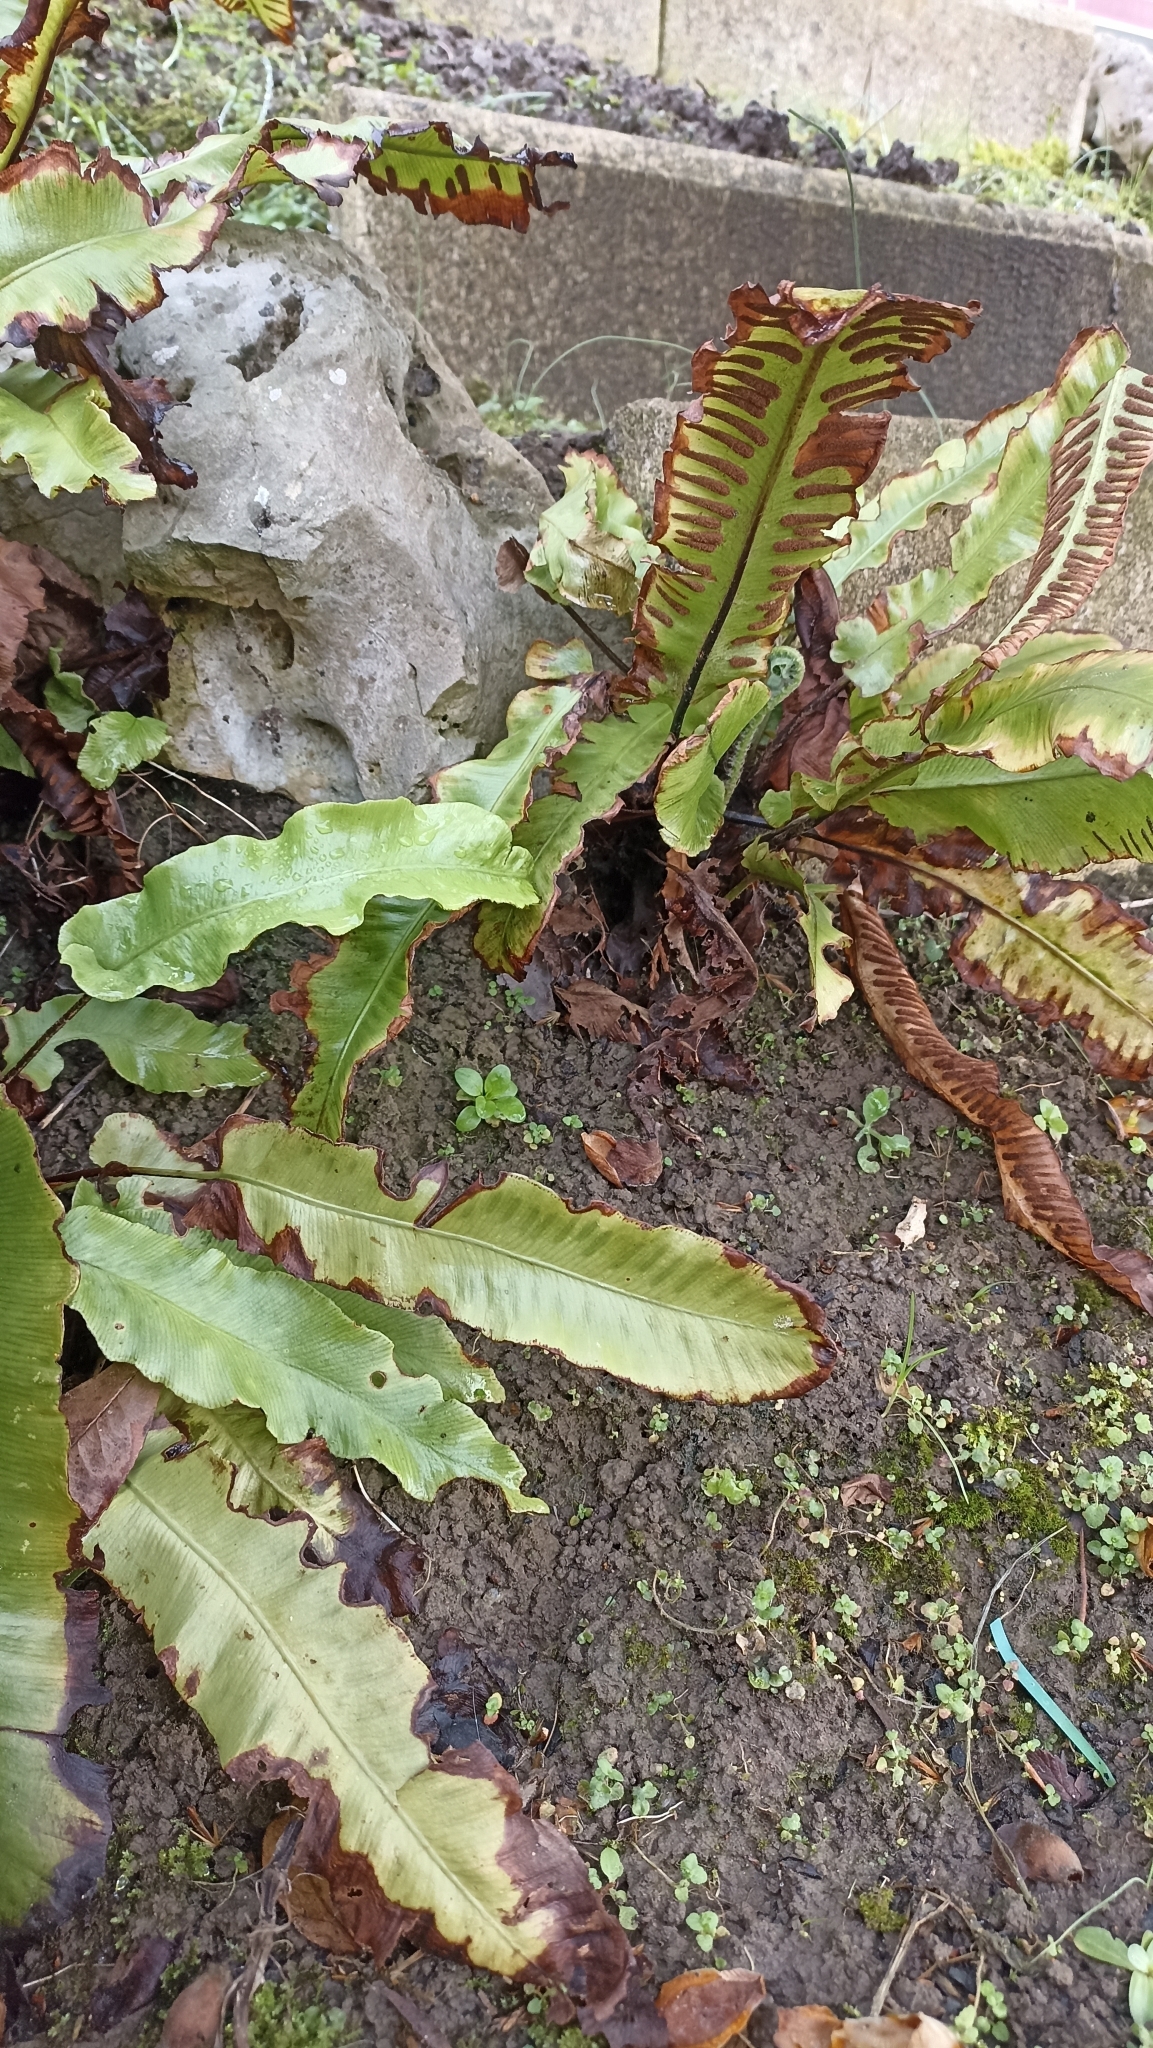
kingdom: Plantae
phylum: Tracheophyta
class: Polypodiopsida
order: Polypodiales
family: Aspleniaceae
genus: Asplenium
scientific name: Asplenium scolopendrium
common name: Hart's-tongue fern
